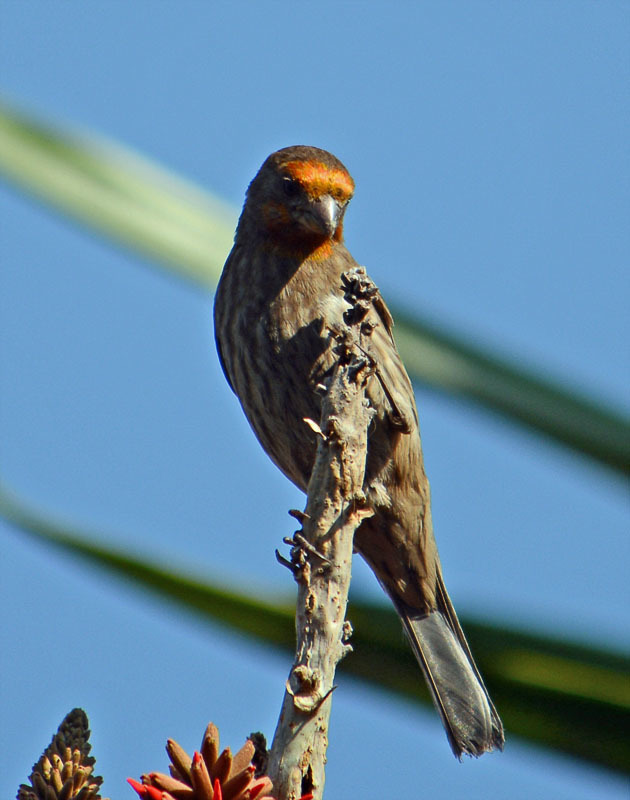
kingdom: Animalia
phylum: Chordata
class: Aves
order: Passeriformes
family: Fringillidae
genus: Haemorhous
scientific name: Haemorhous mexicanus
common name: House finch
